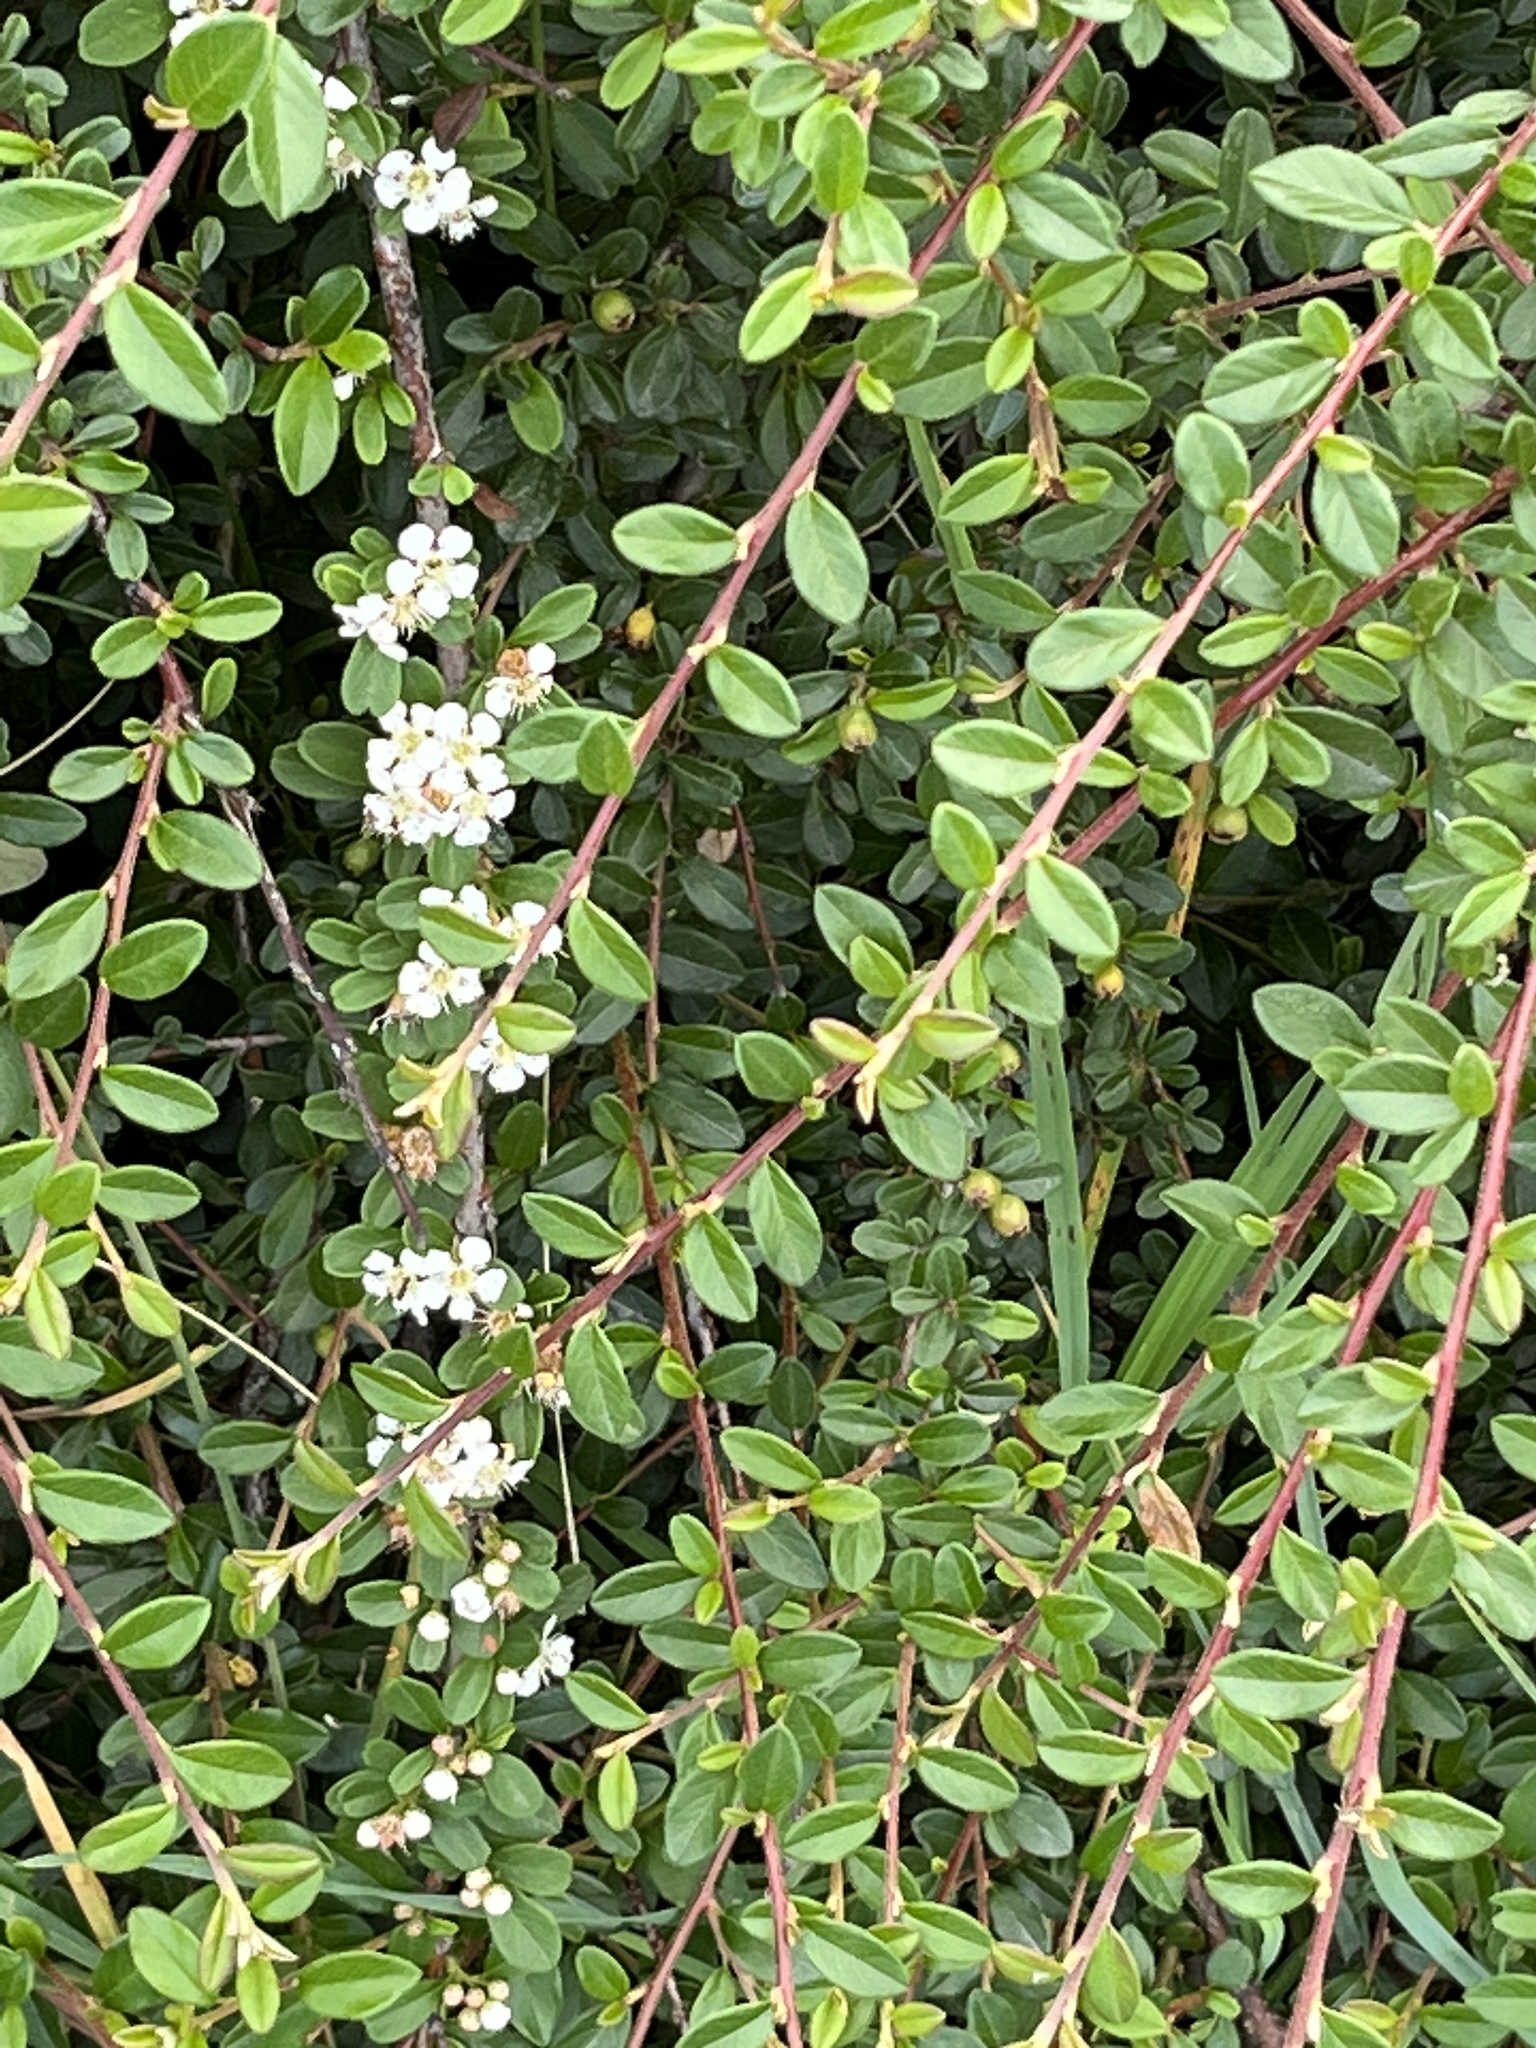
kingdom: Plantae
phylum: Tracheophyta
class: Magnoliopsida
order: Rosales
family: Rosaceae
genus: Cotoneaster
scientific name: Cotoneaster suecicus
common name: Swedish cotoneaster
